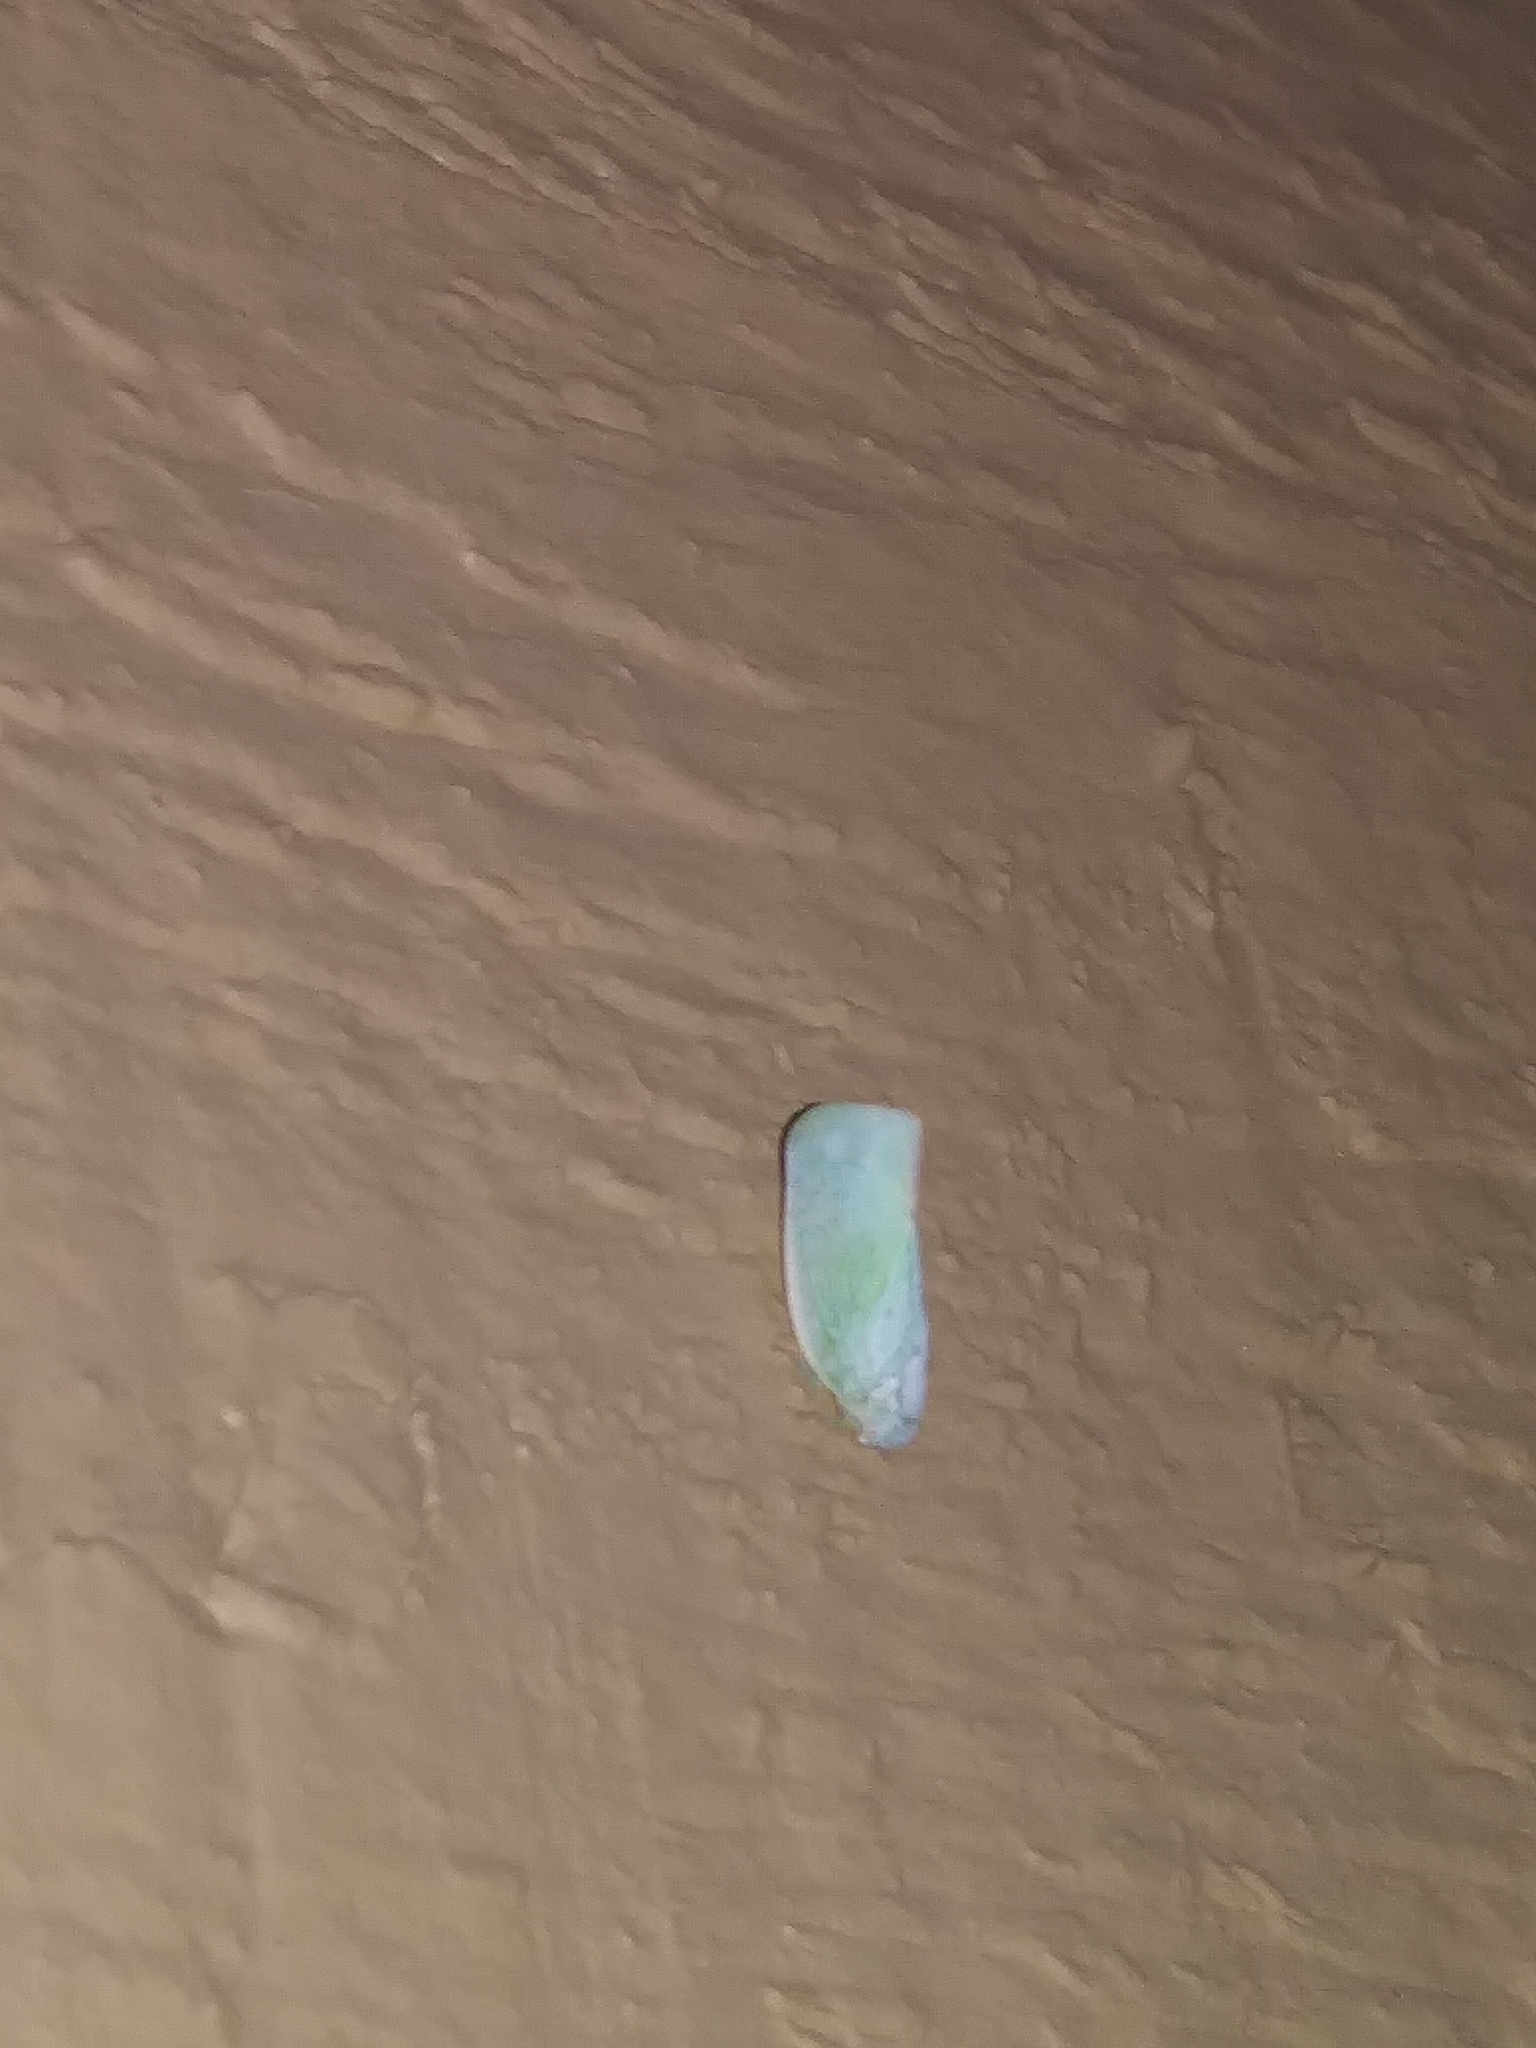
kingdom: Animalia
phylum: Arthropoda
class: Insecta
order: Hemiptera
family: Flatidae
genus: Flatormenis
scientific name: Flatormenis proxima
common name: Northern flatid planthopper
